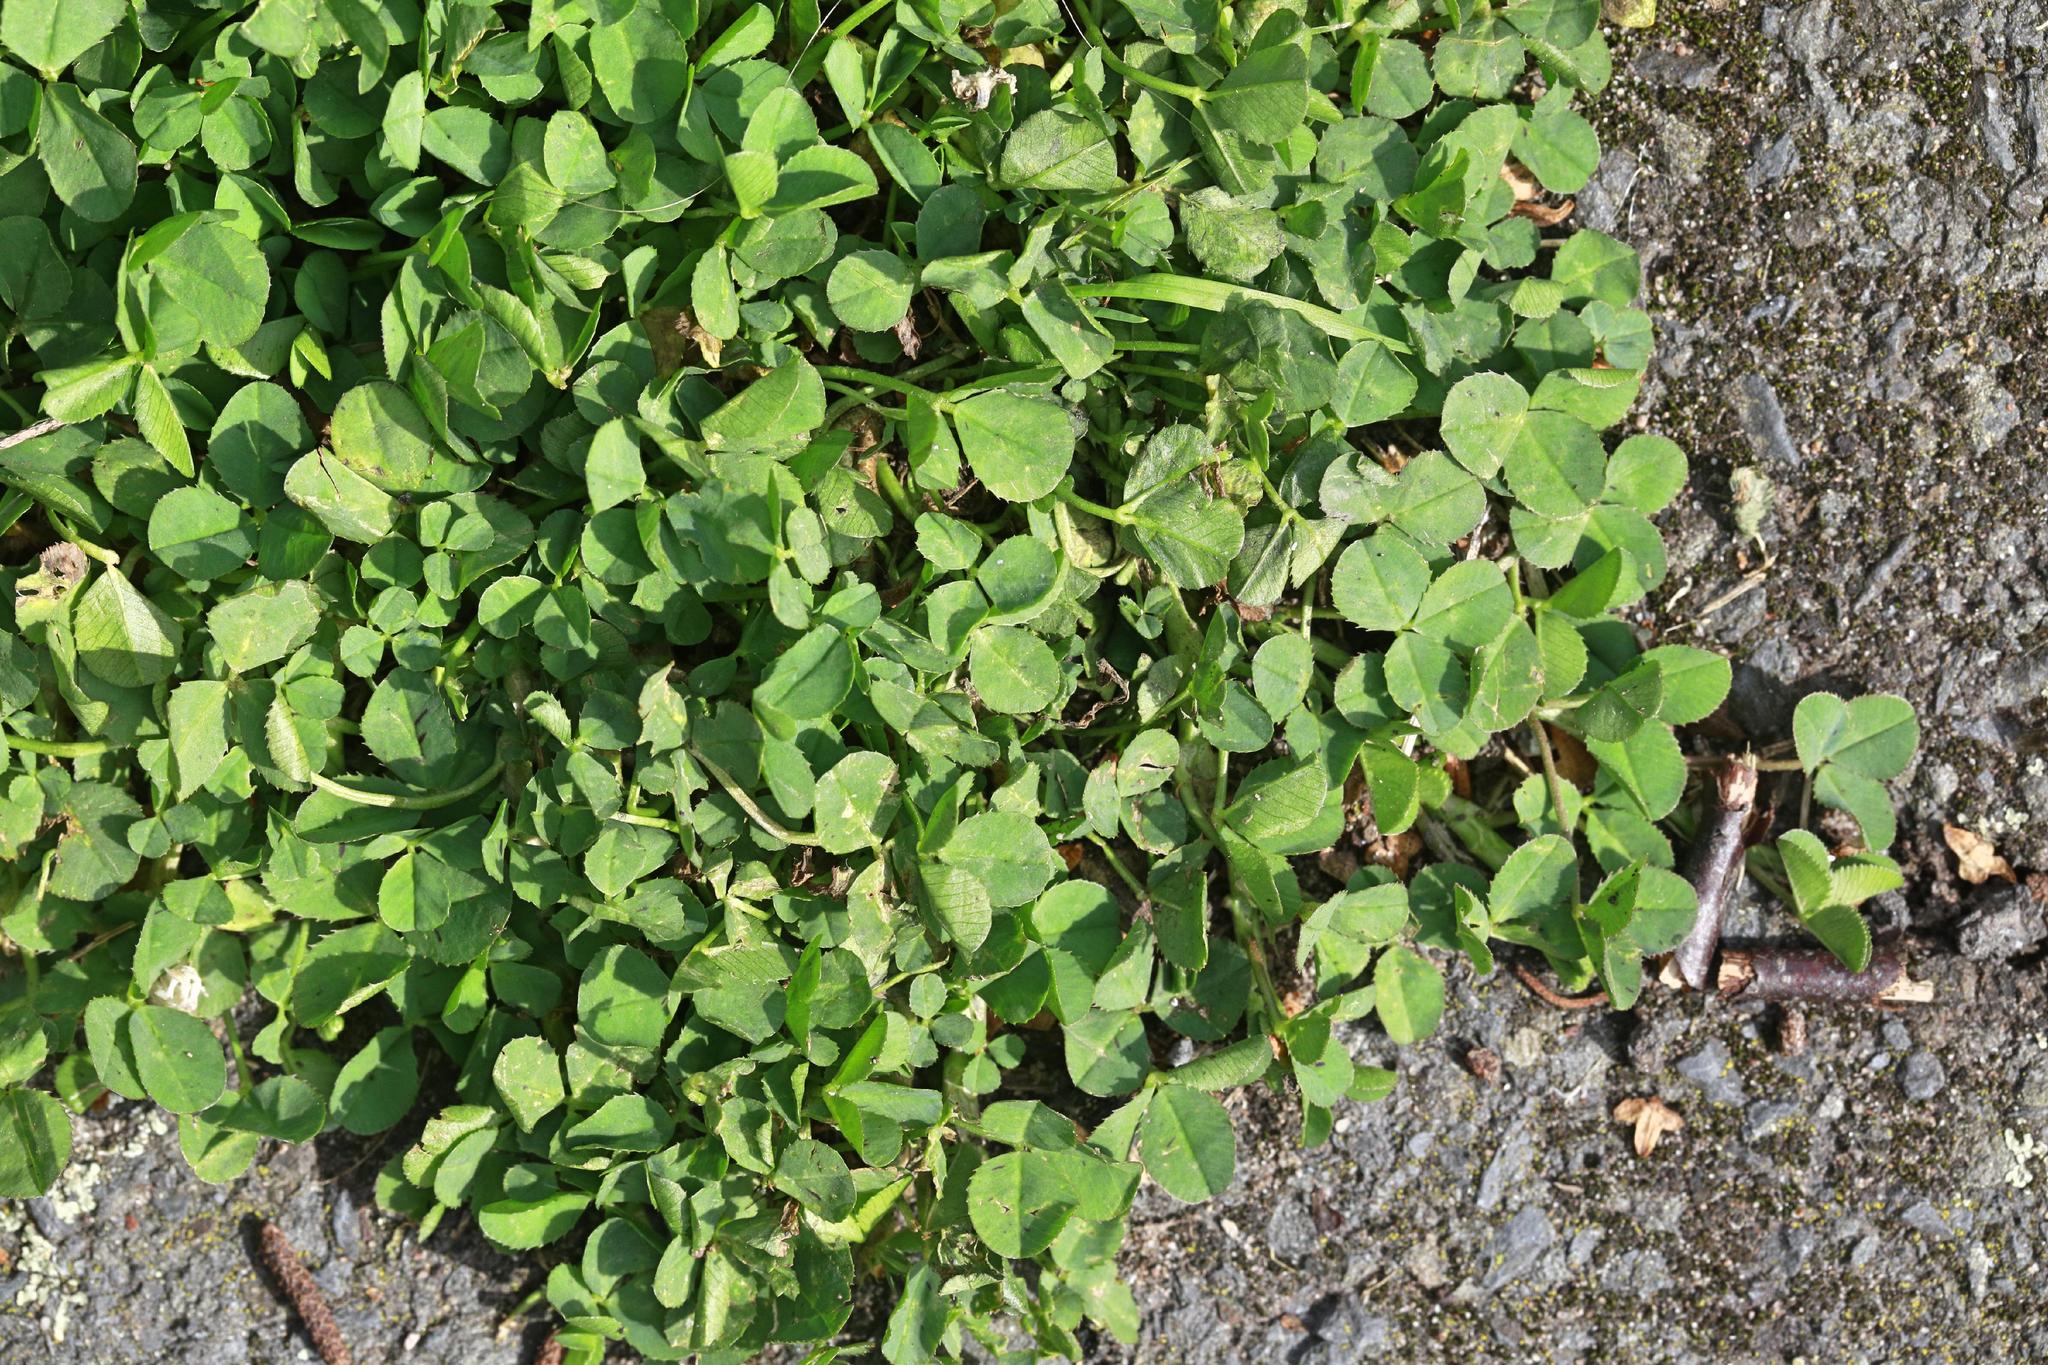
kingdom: Plantae
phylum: Tracheophyta
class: Magnoliopsida
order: Fabales
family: Fabaceae
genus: Trifolium
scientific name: Trifolium repens
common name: White clover
